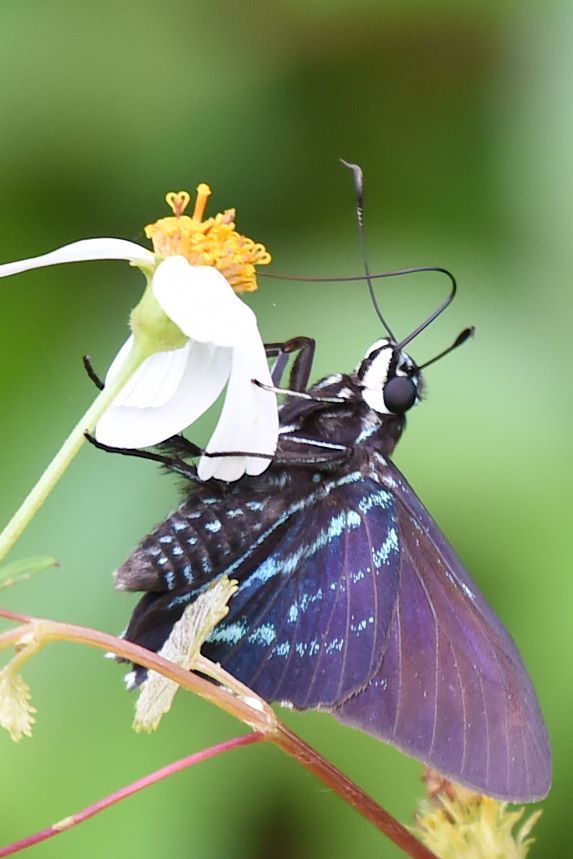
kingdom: Animalia
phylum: Arthropoda
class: Insecta
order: Lepidoptera
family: Hesperiidae
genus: Phocides
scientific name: Phocides pigmalion
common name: Mangrove skipper
